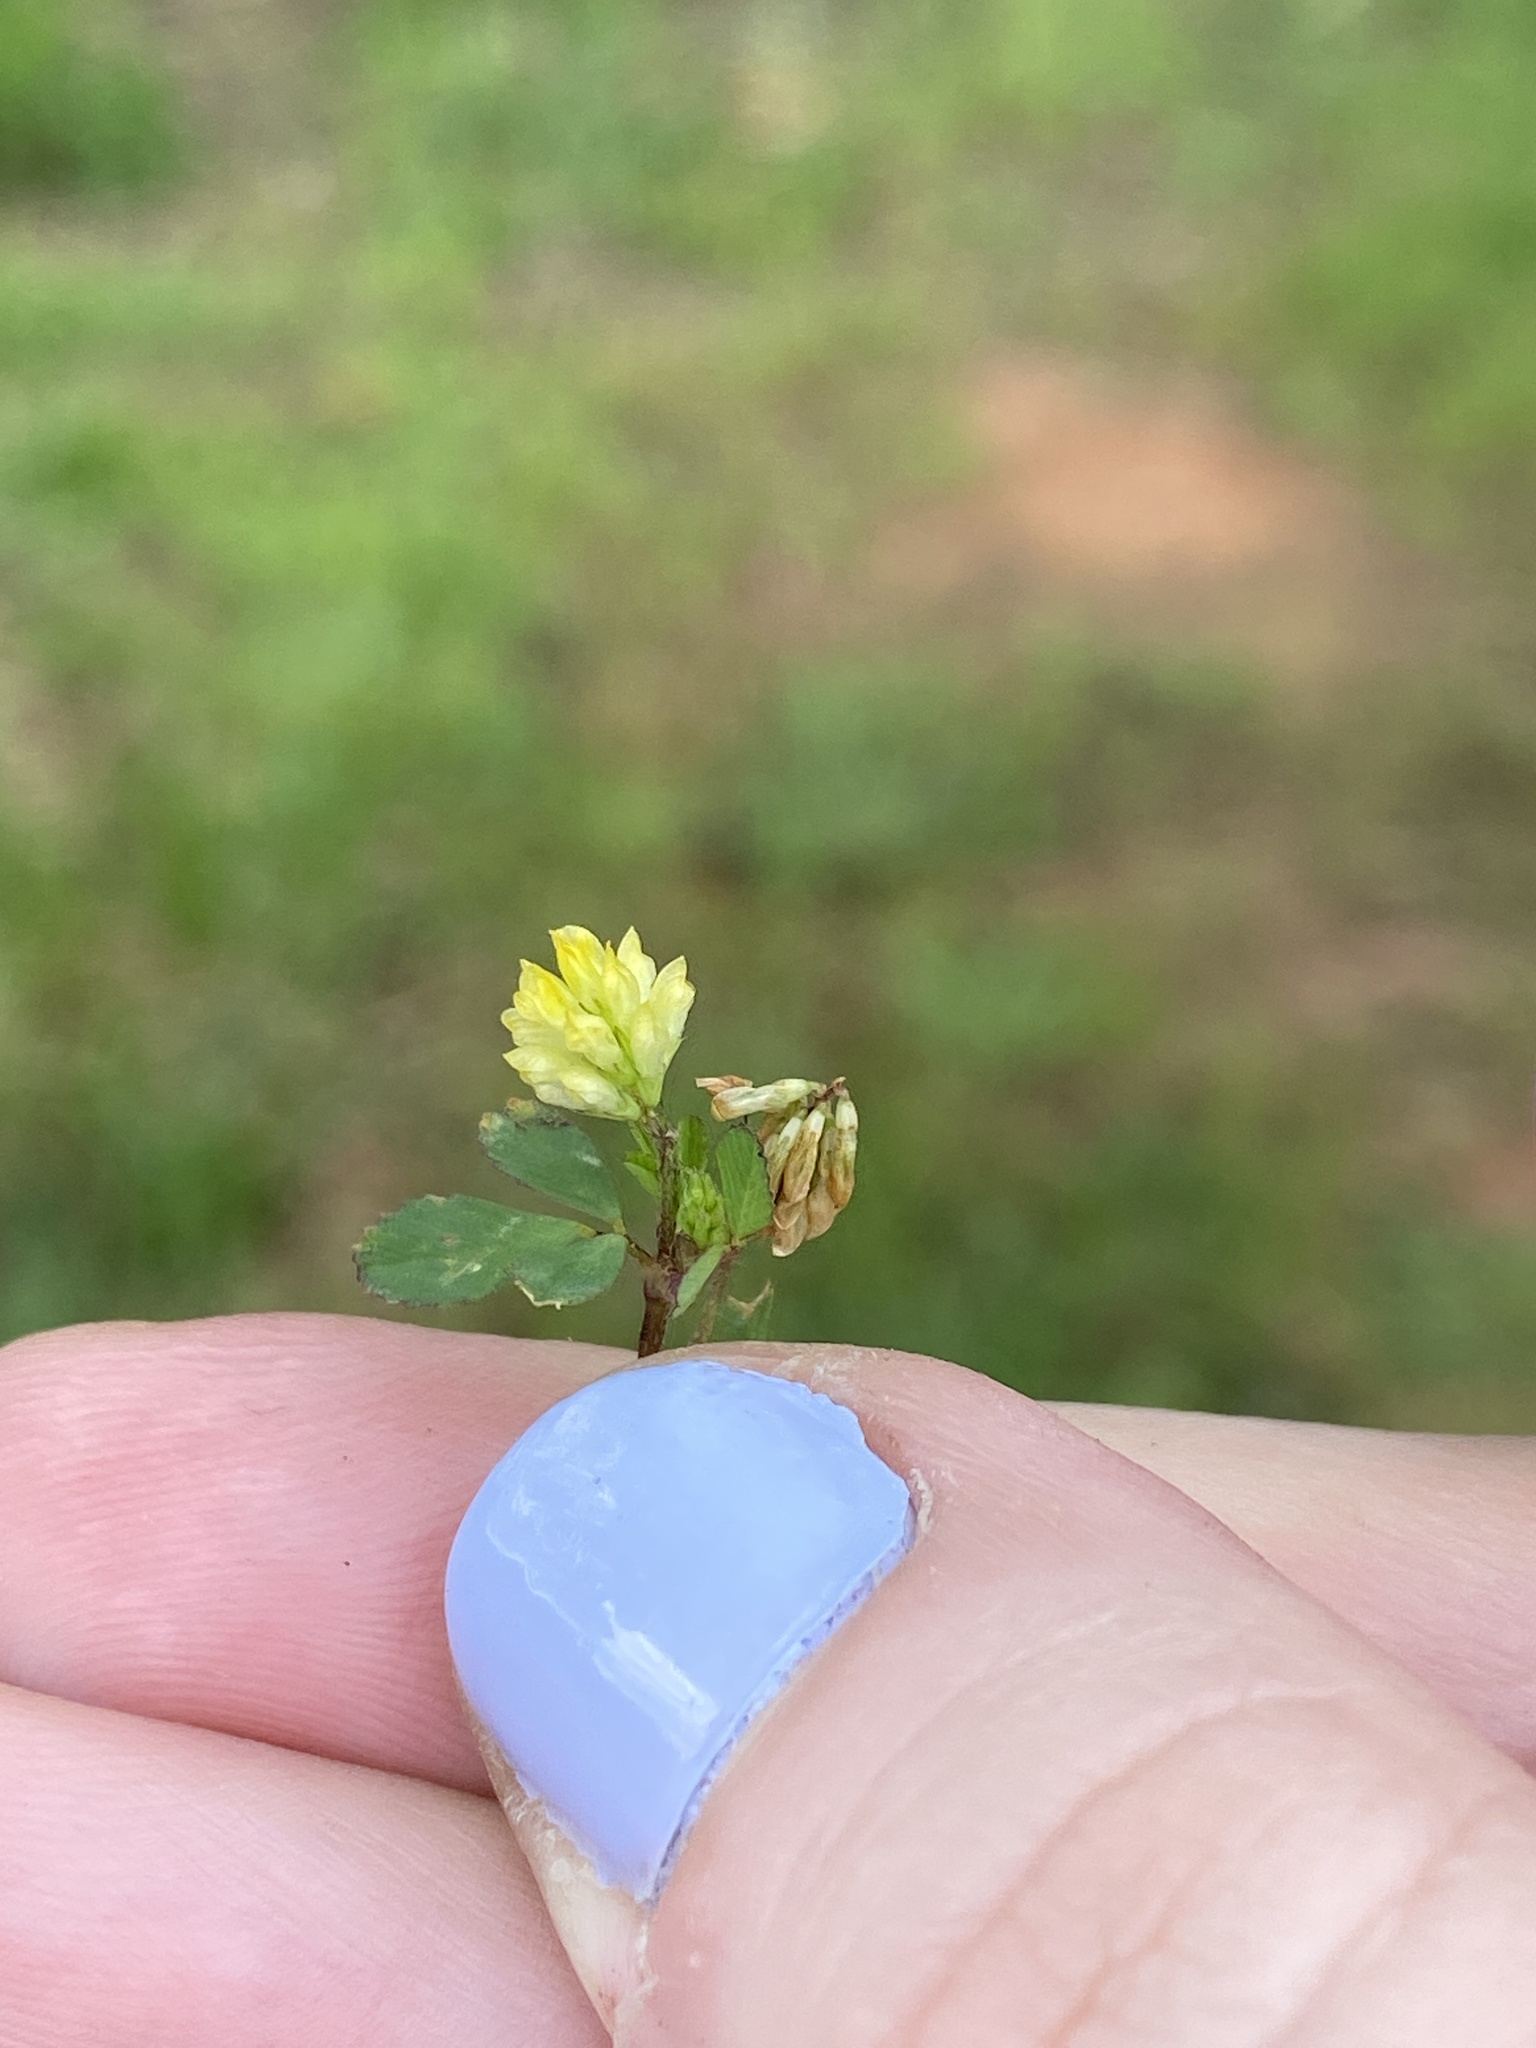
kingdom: Plantae
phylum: Tracheophyta
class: Magnoliopsida
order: Fabales
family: Fabaceae
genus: Trifolium
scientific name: Trifolium dubium
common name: Suckling clover
